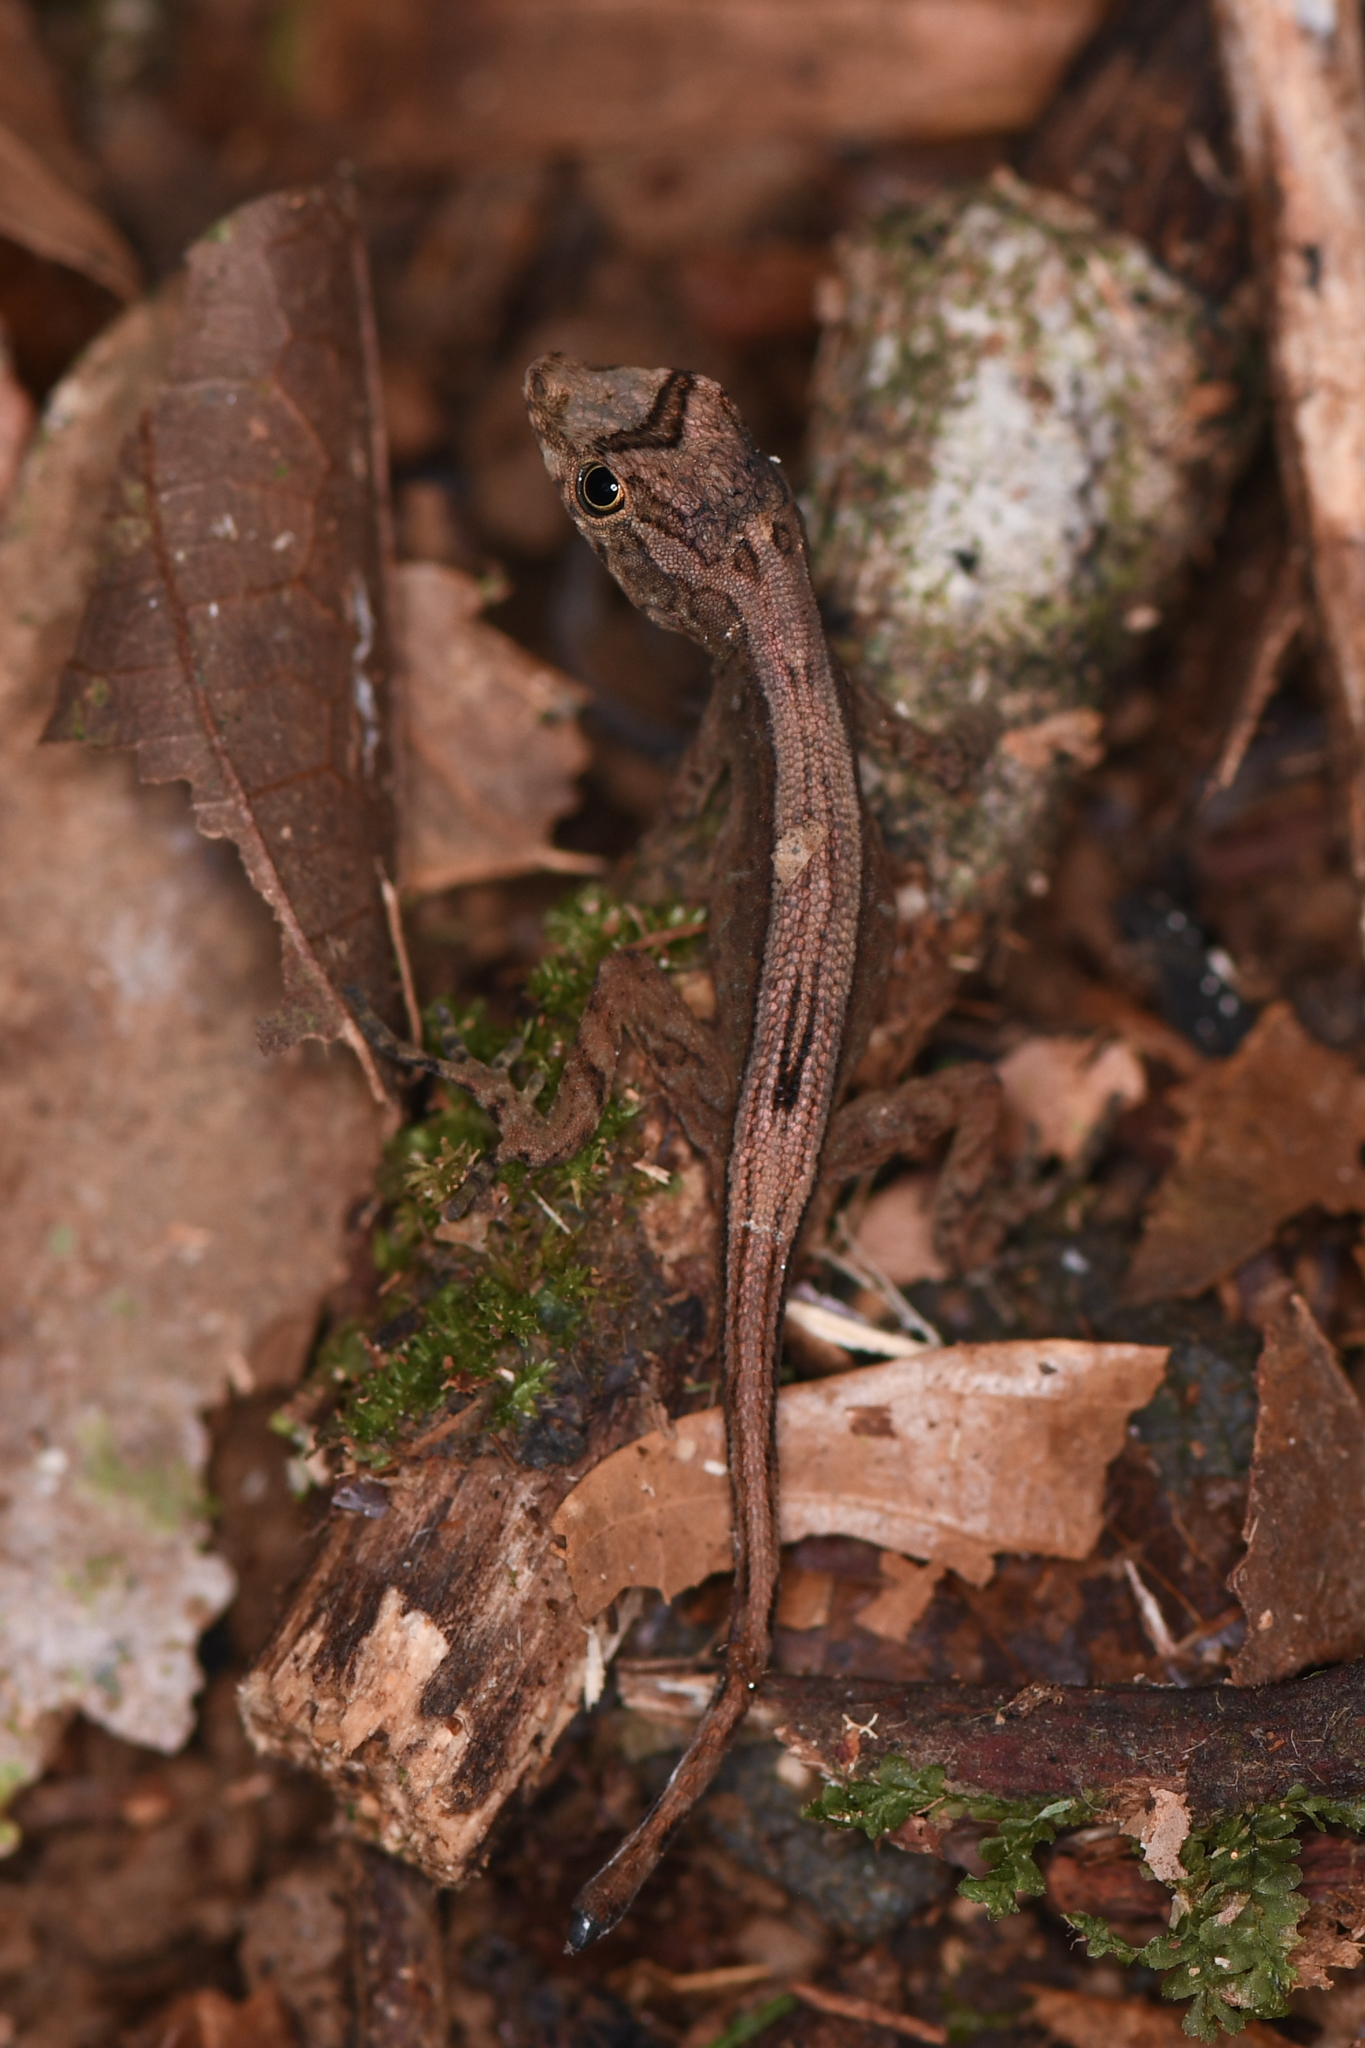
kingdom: Animalia
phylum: Chordata
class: Squamata
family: Dactyloidae
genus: Anolis
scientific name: Anolis humilis
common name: Humble anole
